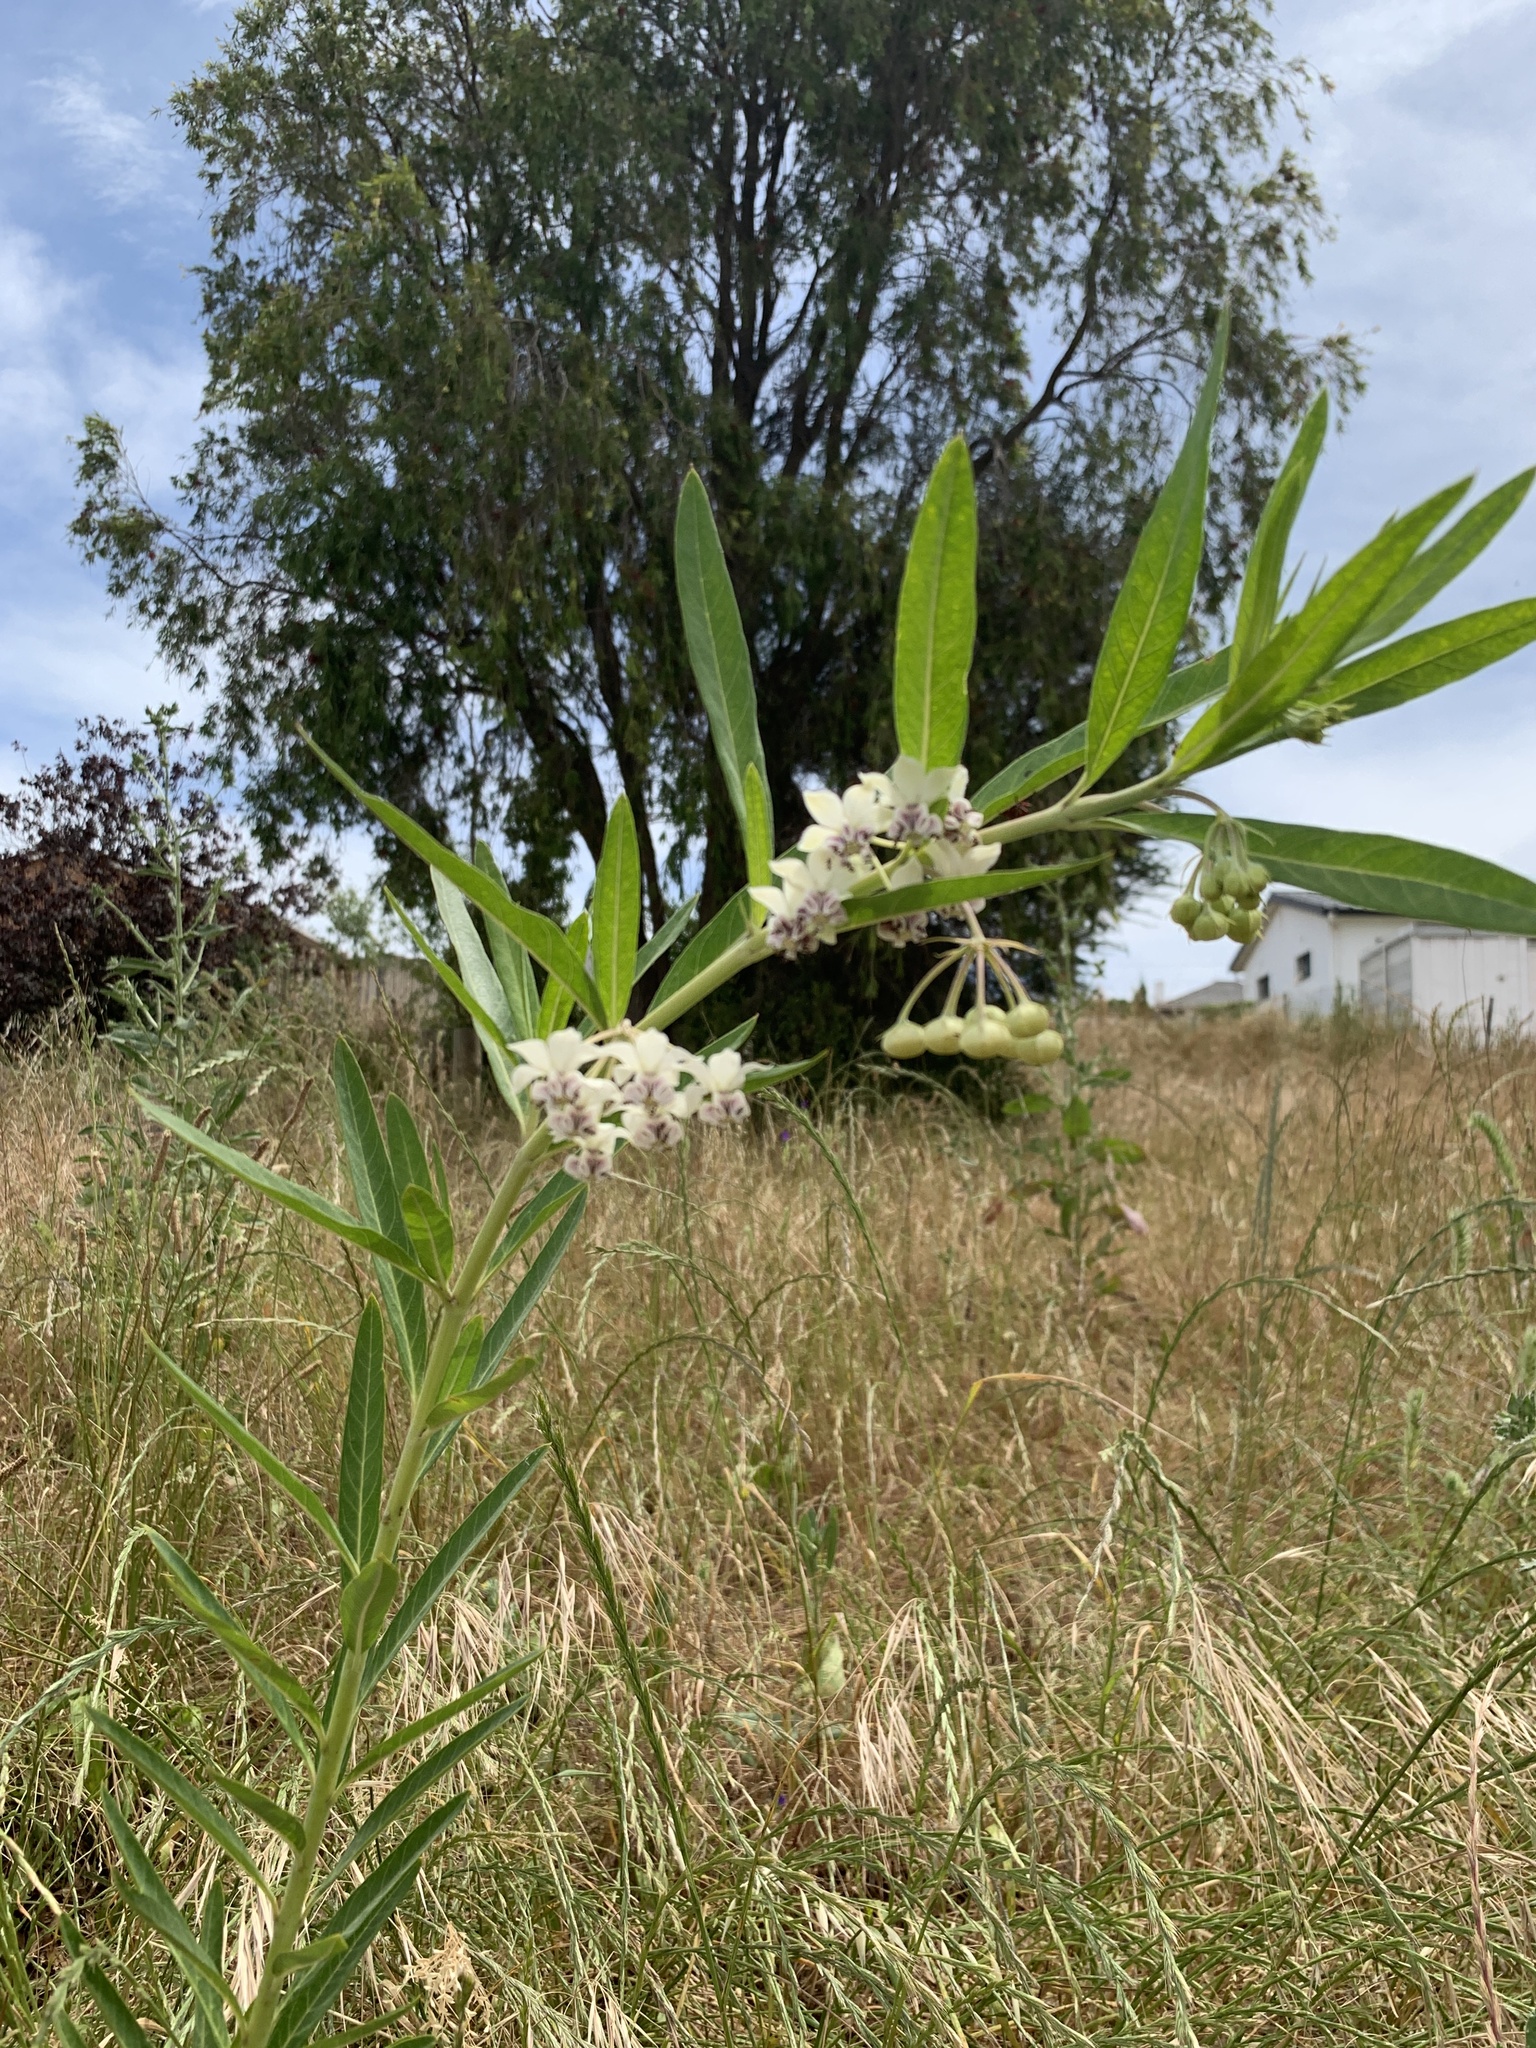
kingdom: Plantae
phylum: Tracheophyta
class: Magnoliopsida
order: Gentianales
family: Apocynaceae
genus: Gomphocarpus
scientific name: Gomphocarpus physocarpus
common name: Balloon cotton bush
